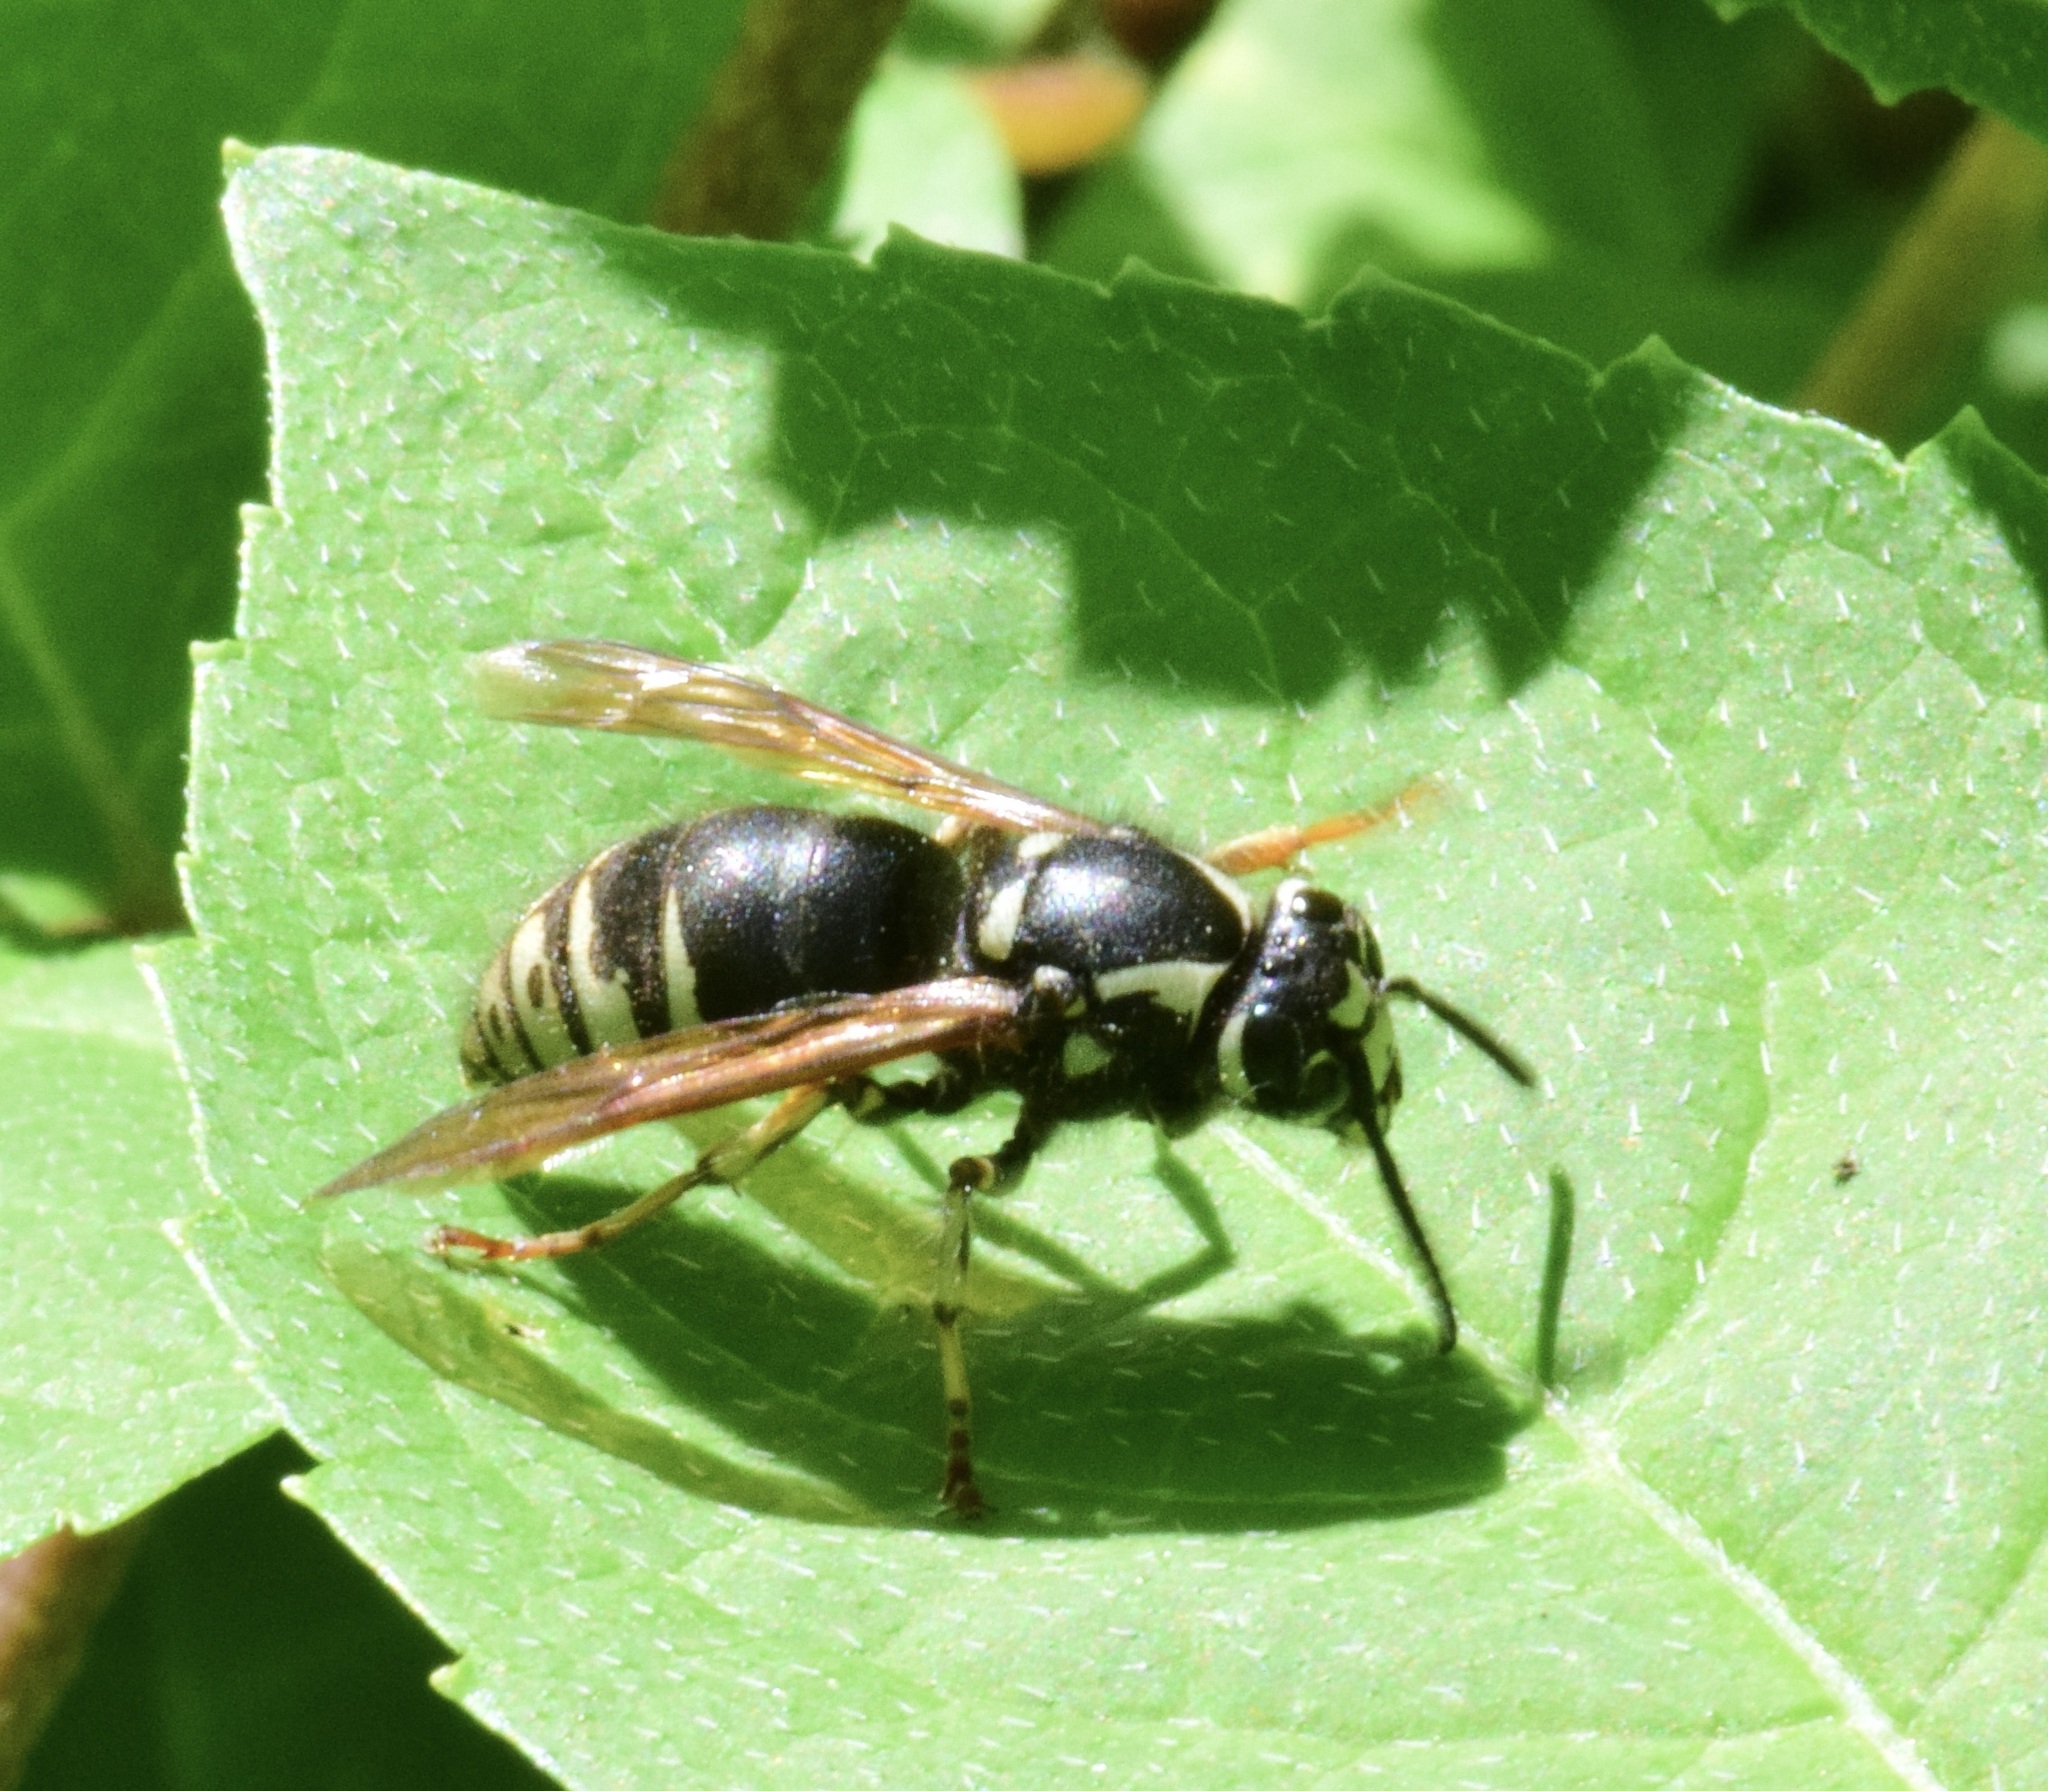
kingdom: Animalia
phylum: Arthropoda
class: Insecta
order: Hymenoptera
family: Vespidae
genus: Dolichovespula
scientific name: Dolichovespula adulterina
